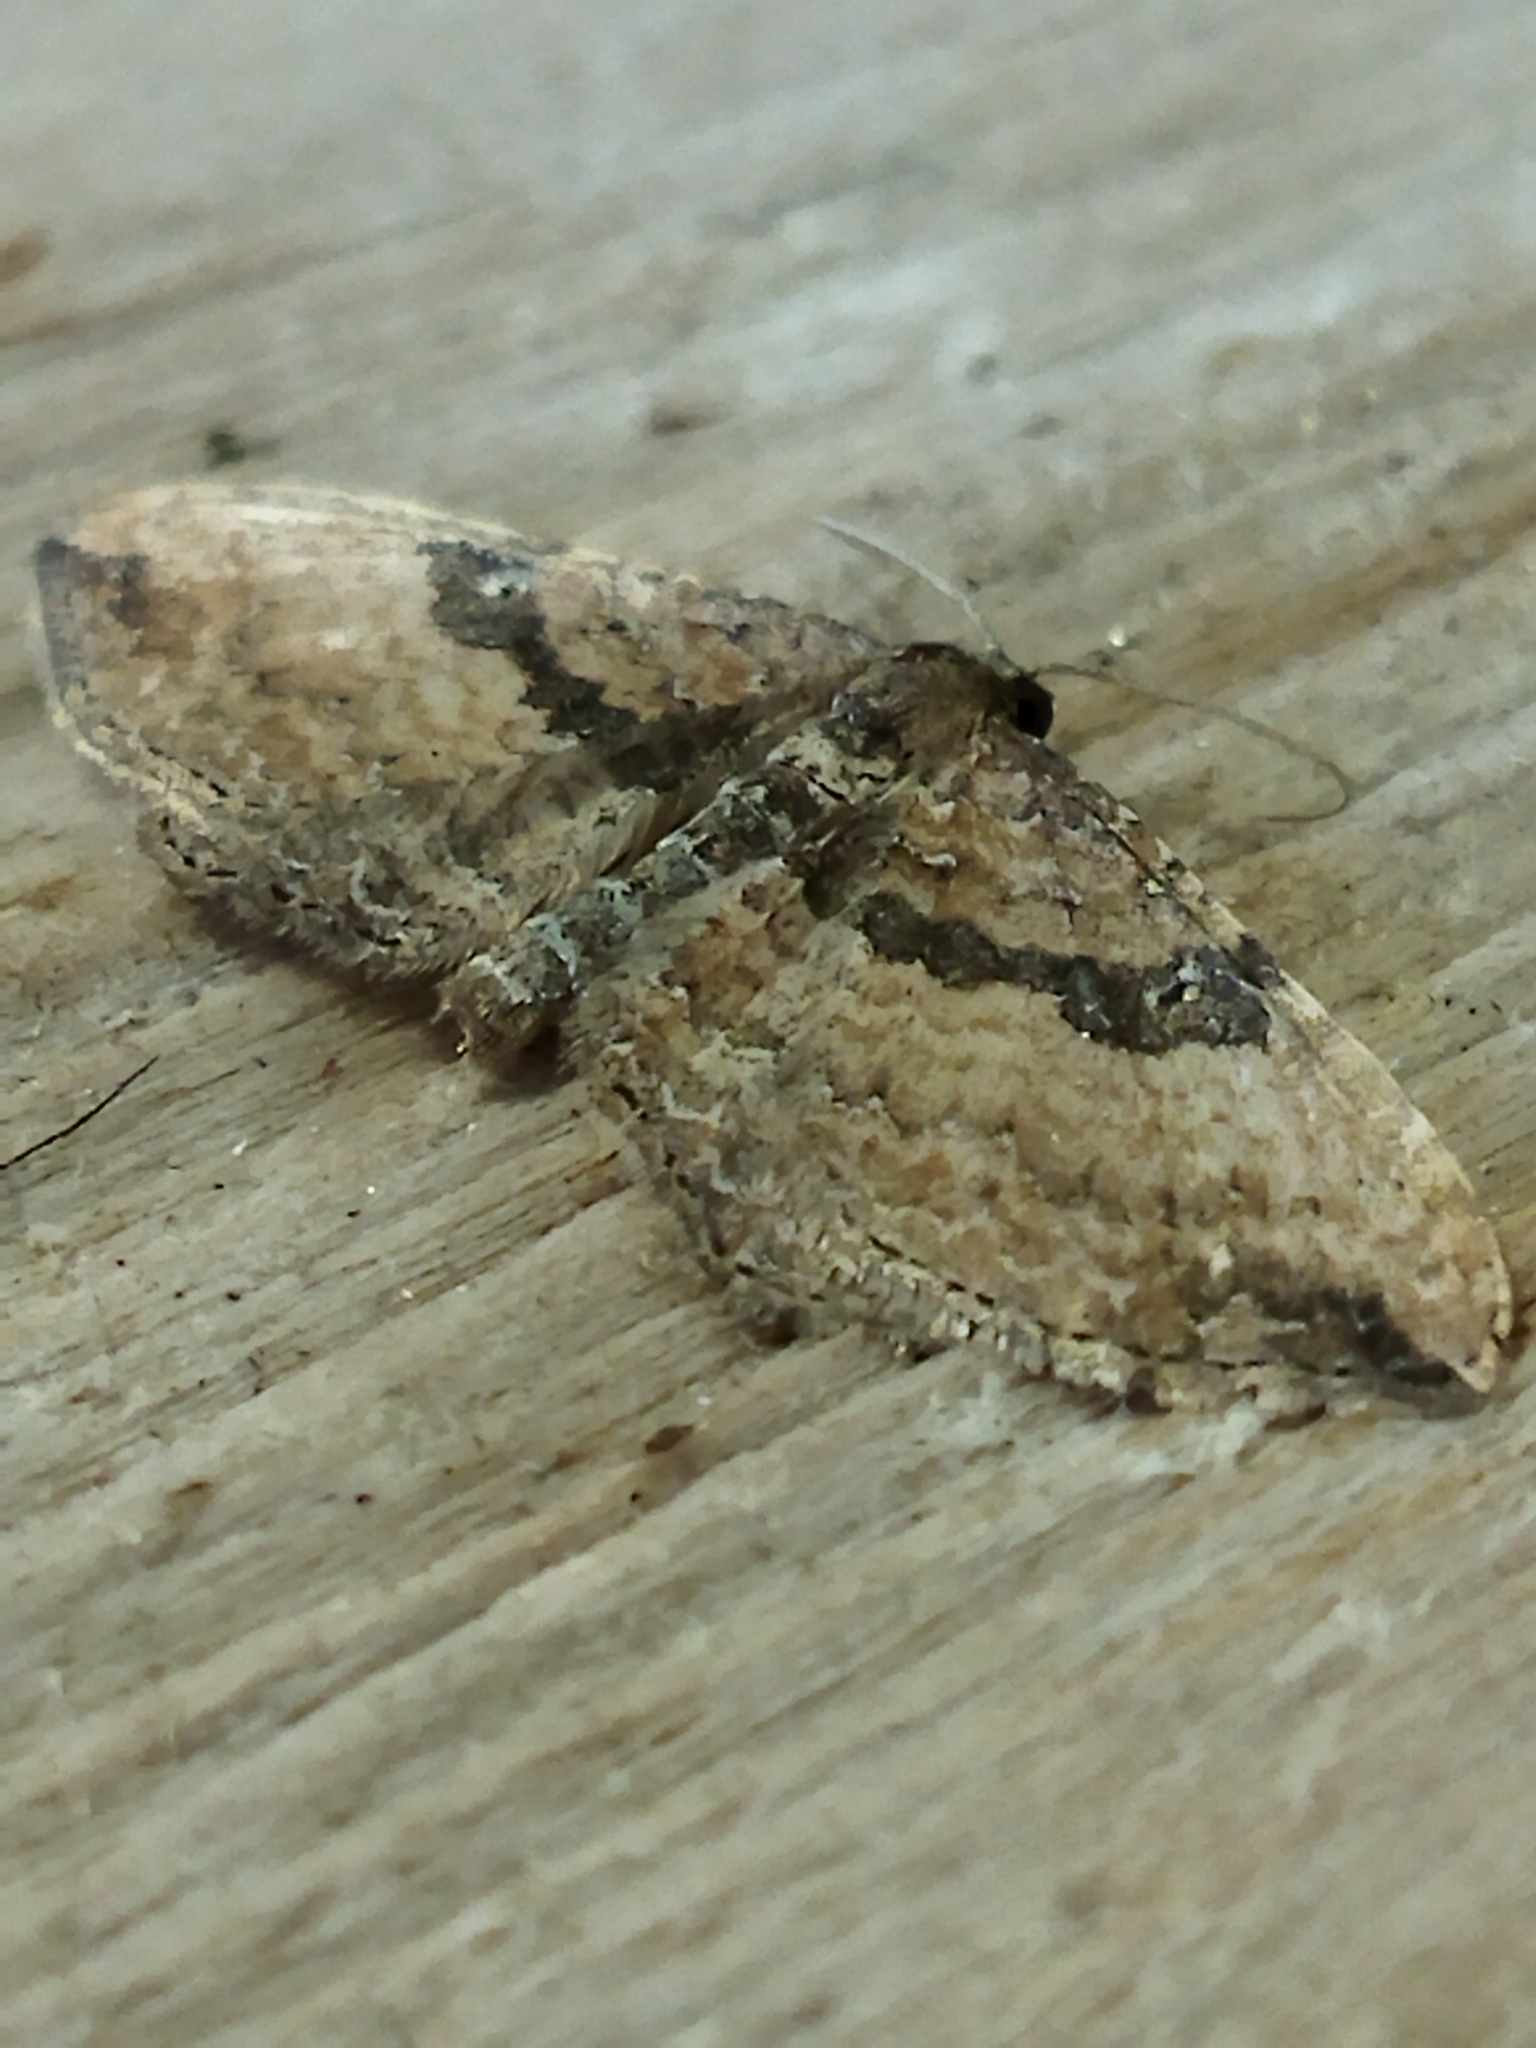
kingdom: Animalia
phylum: Arthropoda
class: Insecta
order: Lepidoptera
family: Geometridae
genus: Orthonama
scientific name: Orthonama obstipata
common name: The gem
